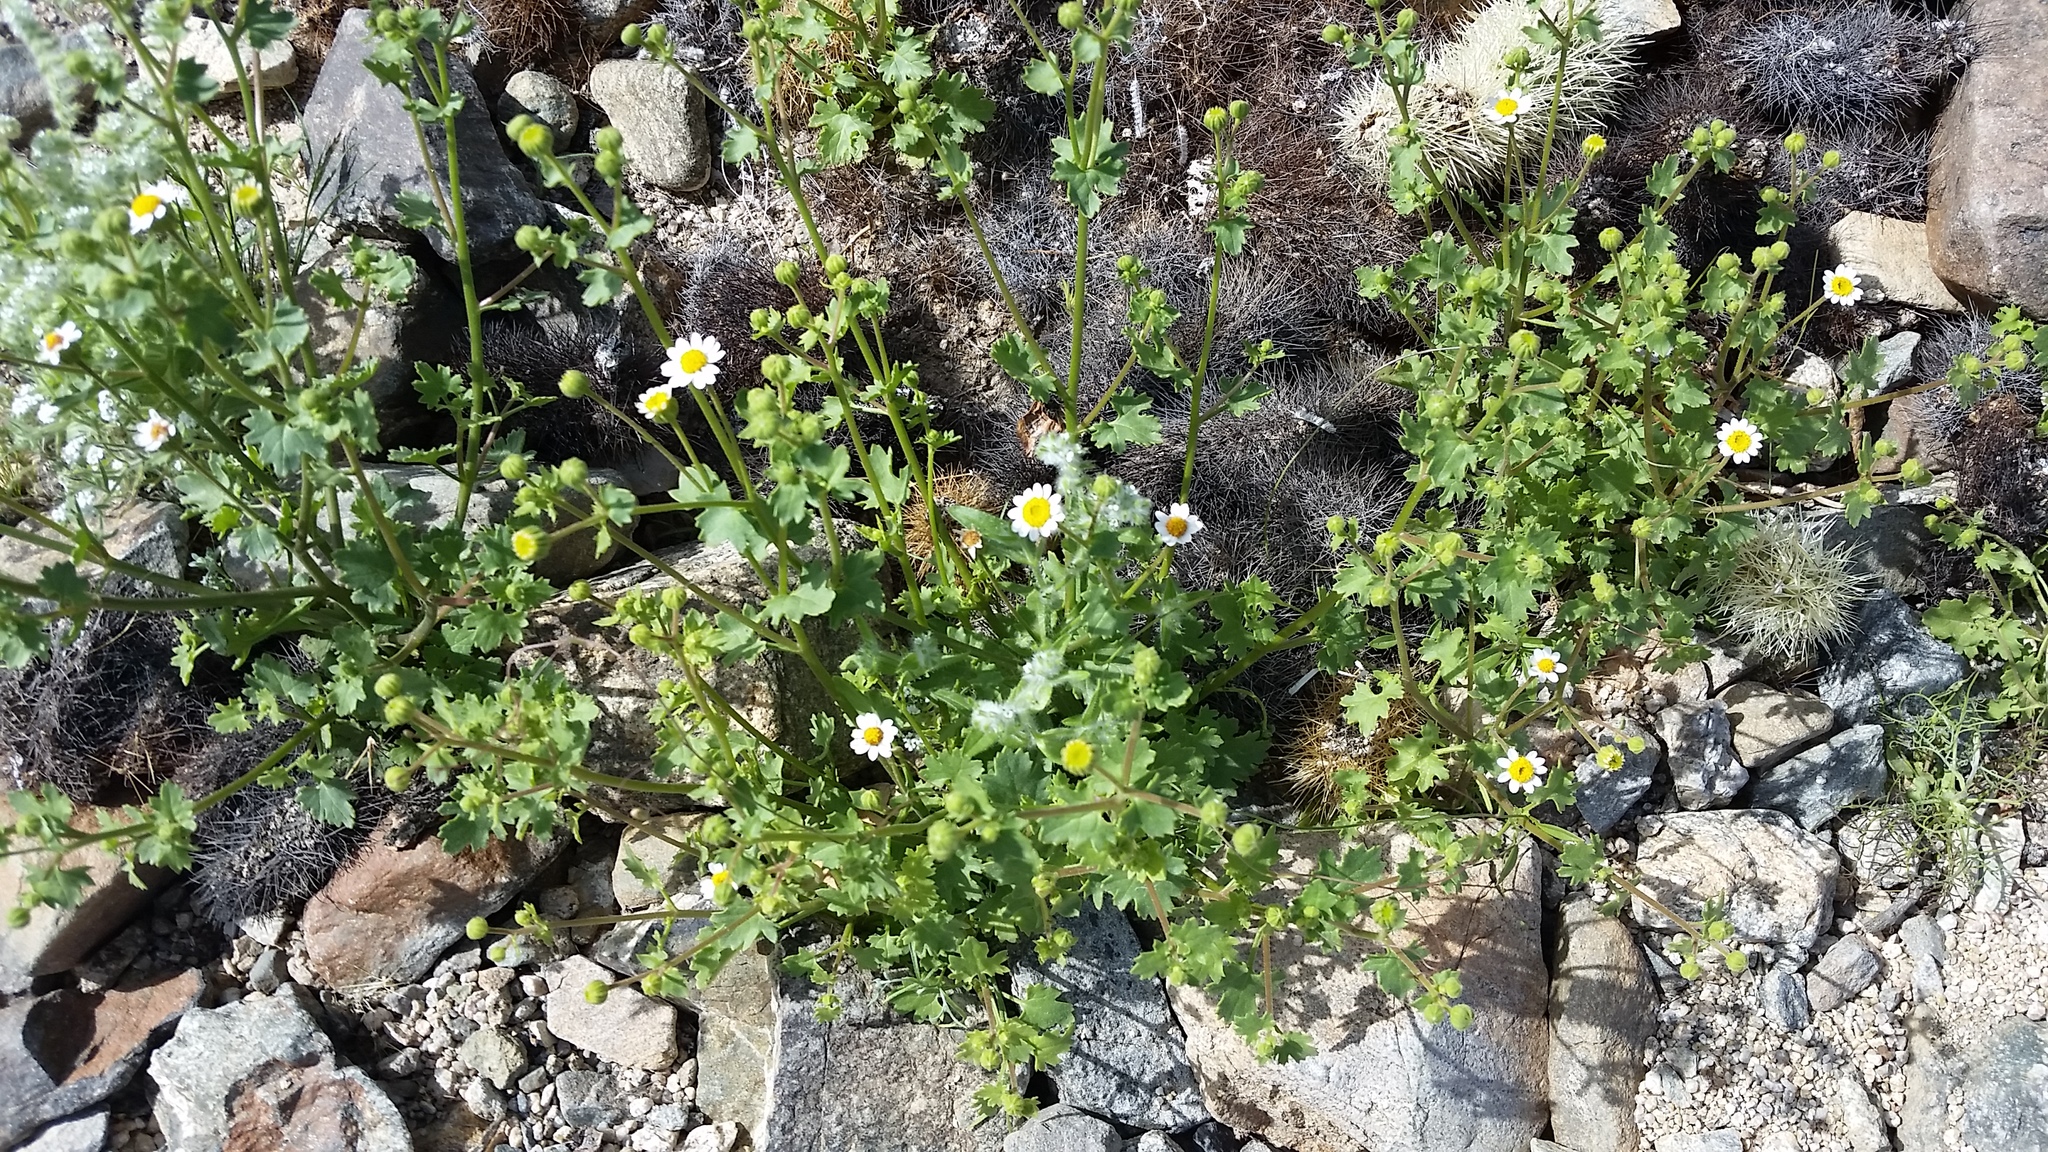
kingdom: Plantae
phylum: Tracheophyta
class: Magnoliopsida
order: Asterales
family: Asteraceae
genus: Laphamia
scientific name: Laphamia emoryi
